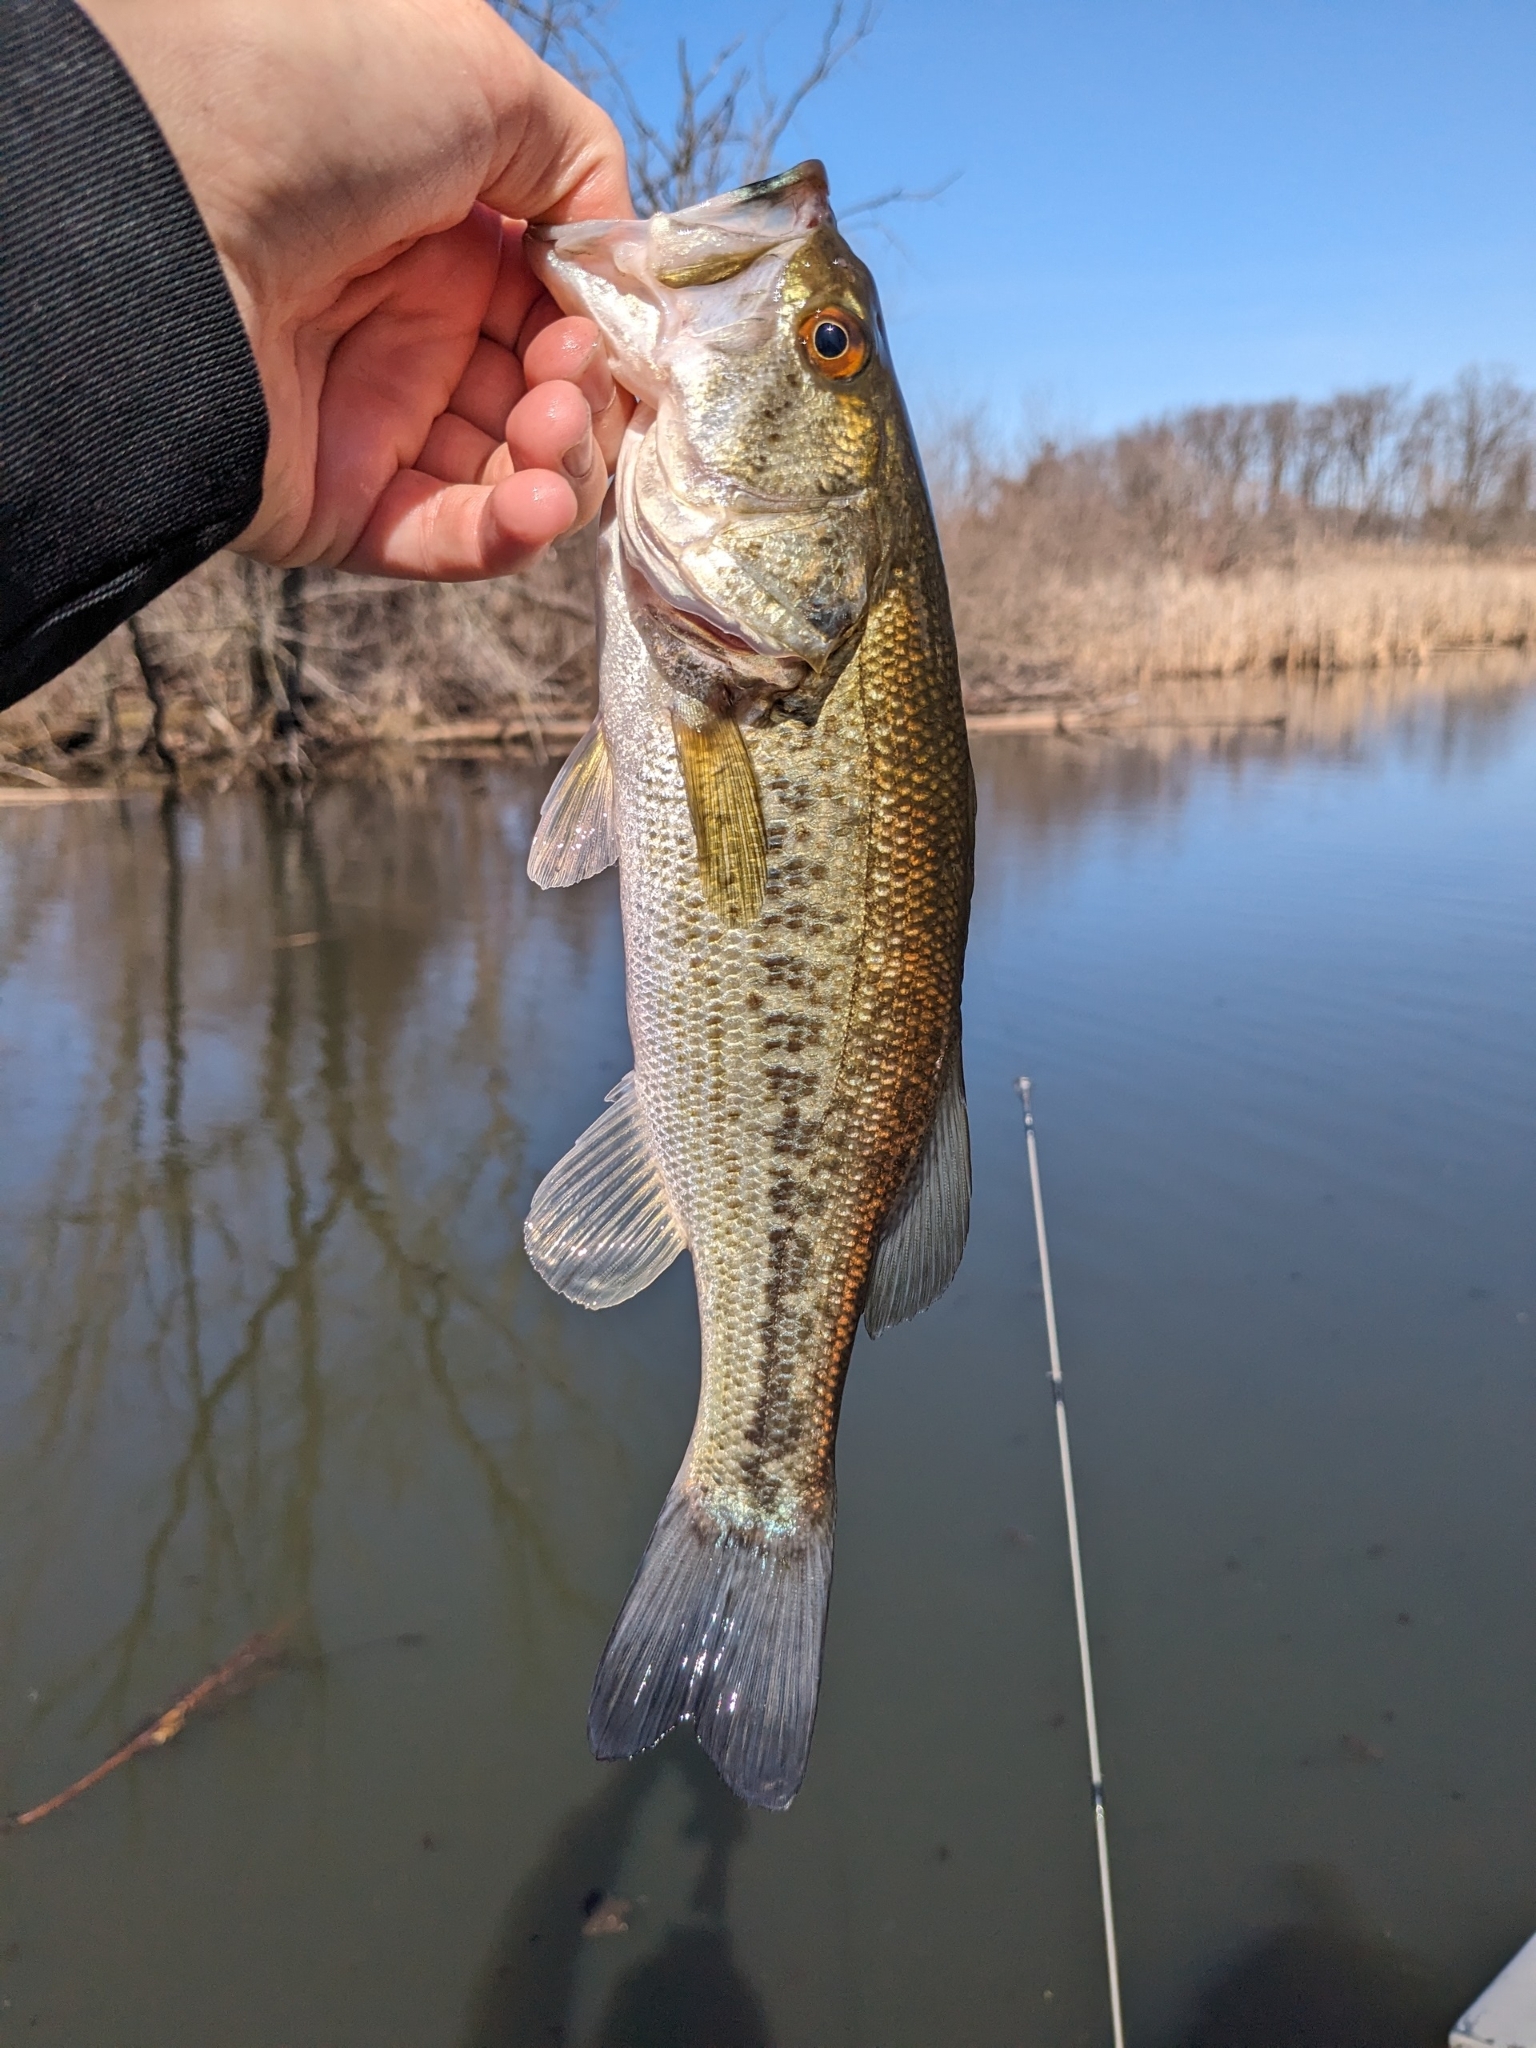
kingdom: Animalia
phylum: Chordata
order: Perciformes
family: Centrarchidae
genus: Micropterus
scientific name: Micropterus
